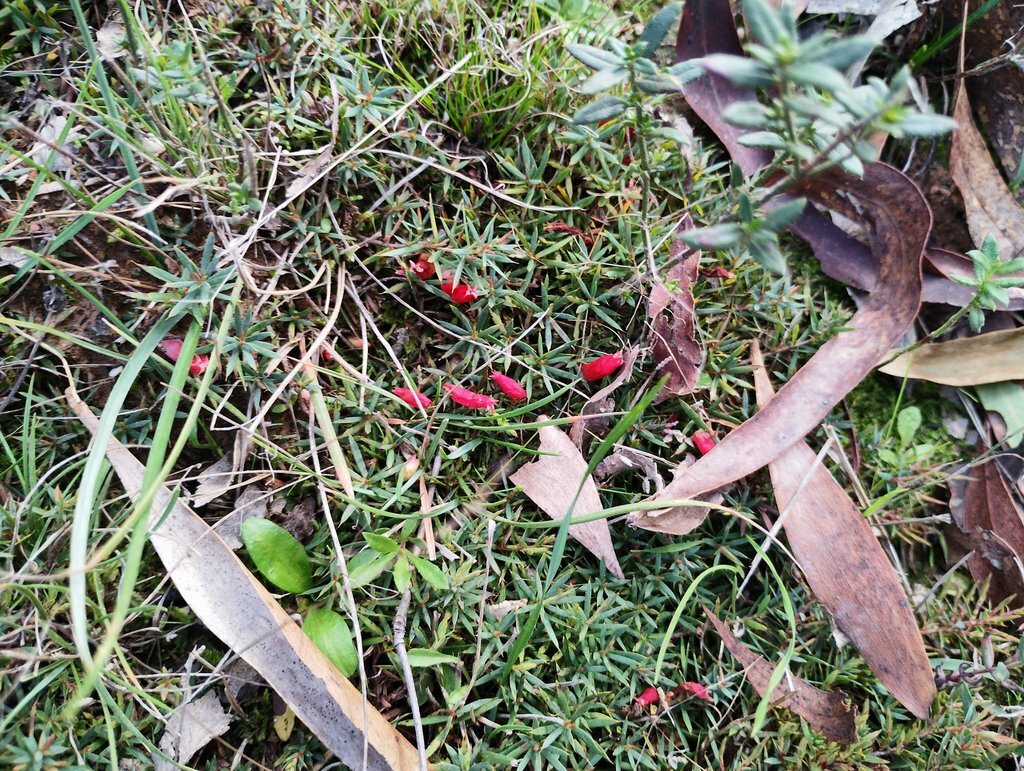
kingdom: Plantae
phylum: Tracheophyta
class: Magnoliopsida
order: Ericales
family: Ericaceae
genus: Styphelia
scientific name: Styphelia humifusa
